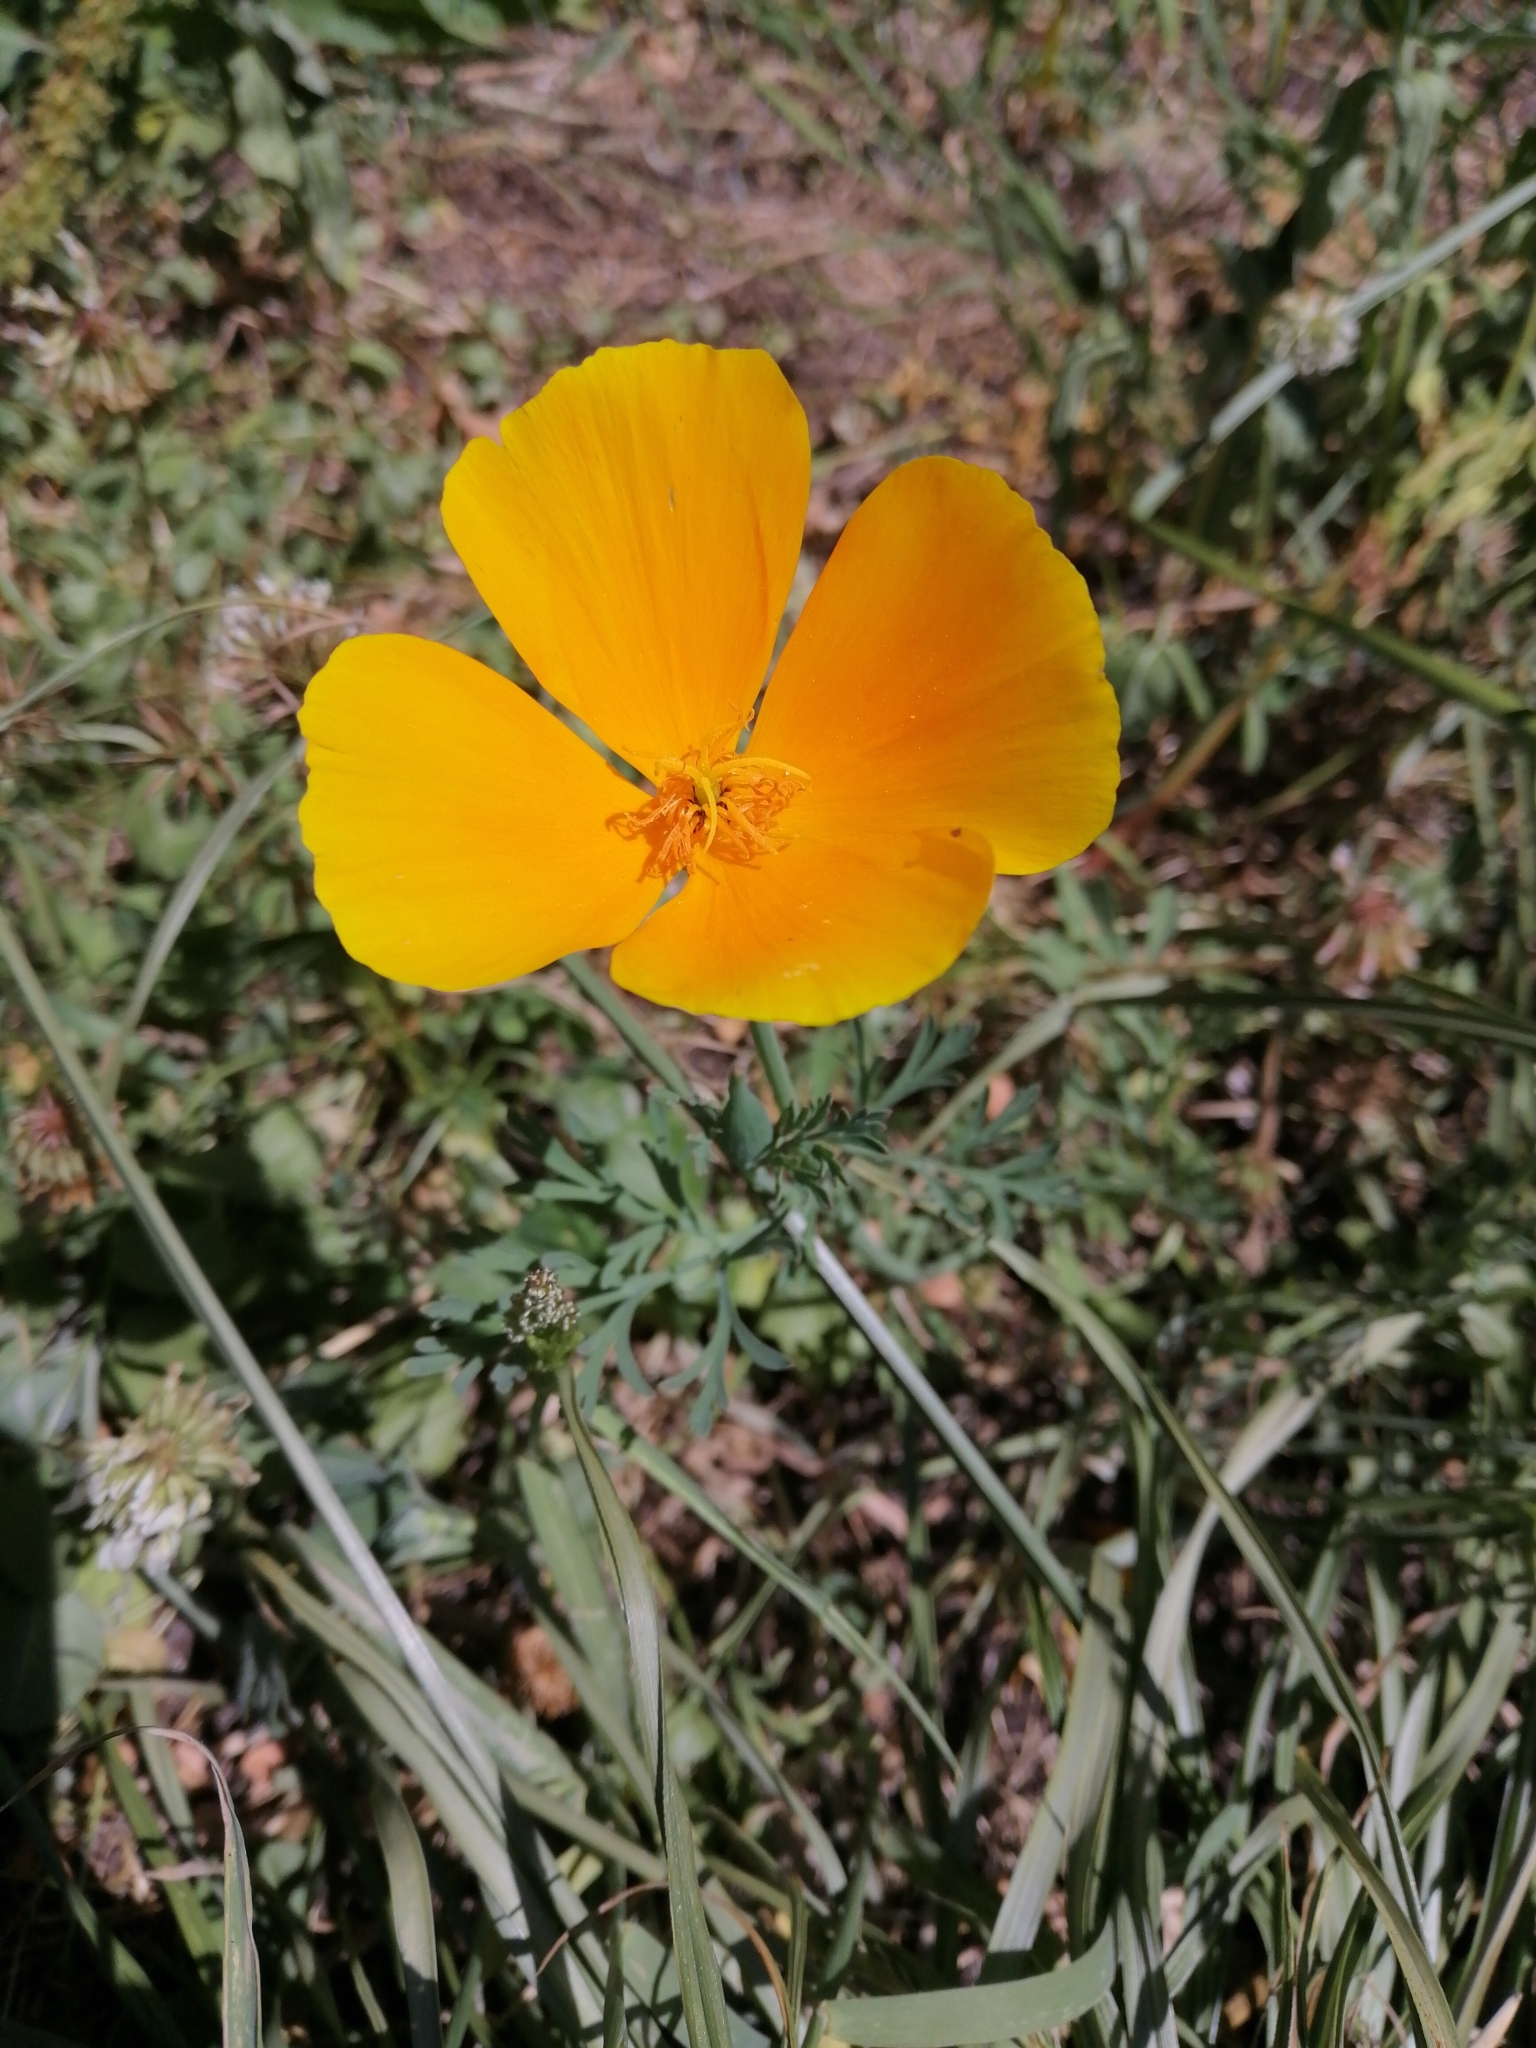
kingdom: Plantae
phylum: Tracheophyta
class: Magnoliopsida
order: Ranunculales
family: Papaveraceae
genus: Eschscholzia
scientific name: Eschscholzia californica
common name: California poppy
